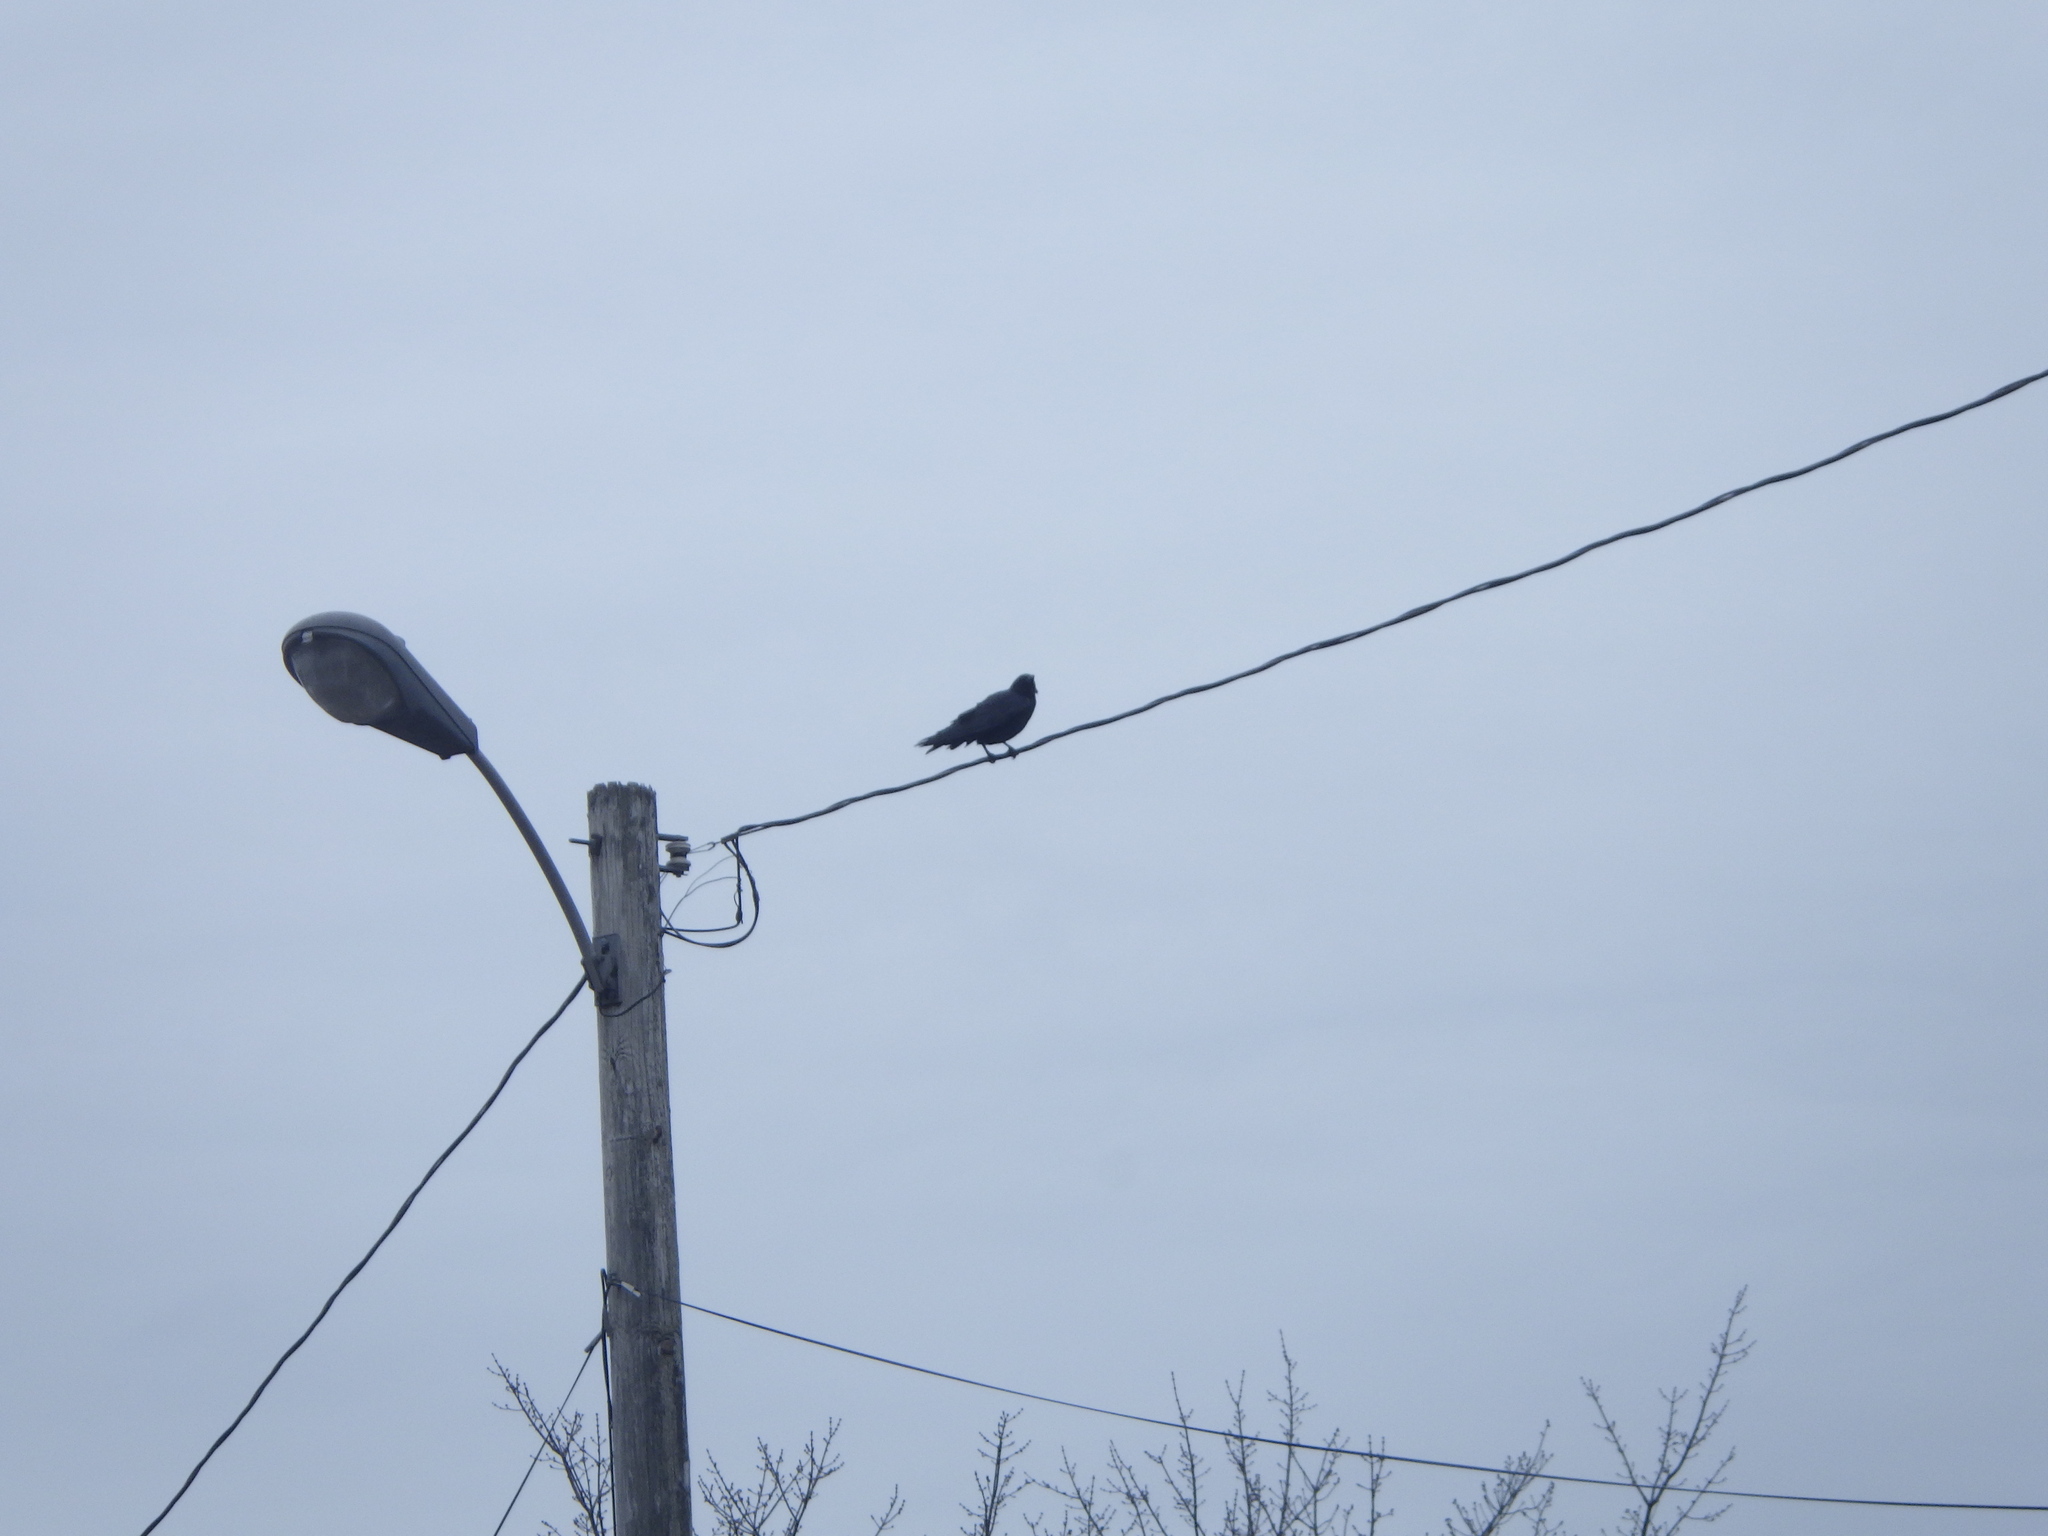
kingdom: Animalia
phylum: Chordata
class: Aves
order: Passeriformes
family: Corvidae
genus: Corvus
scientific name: Corvus brachyrhynchos
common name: American crow
